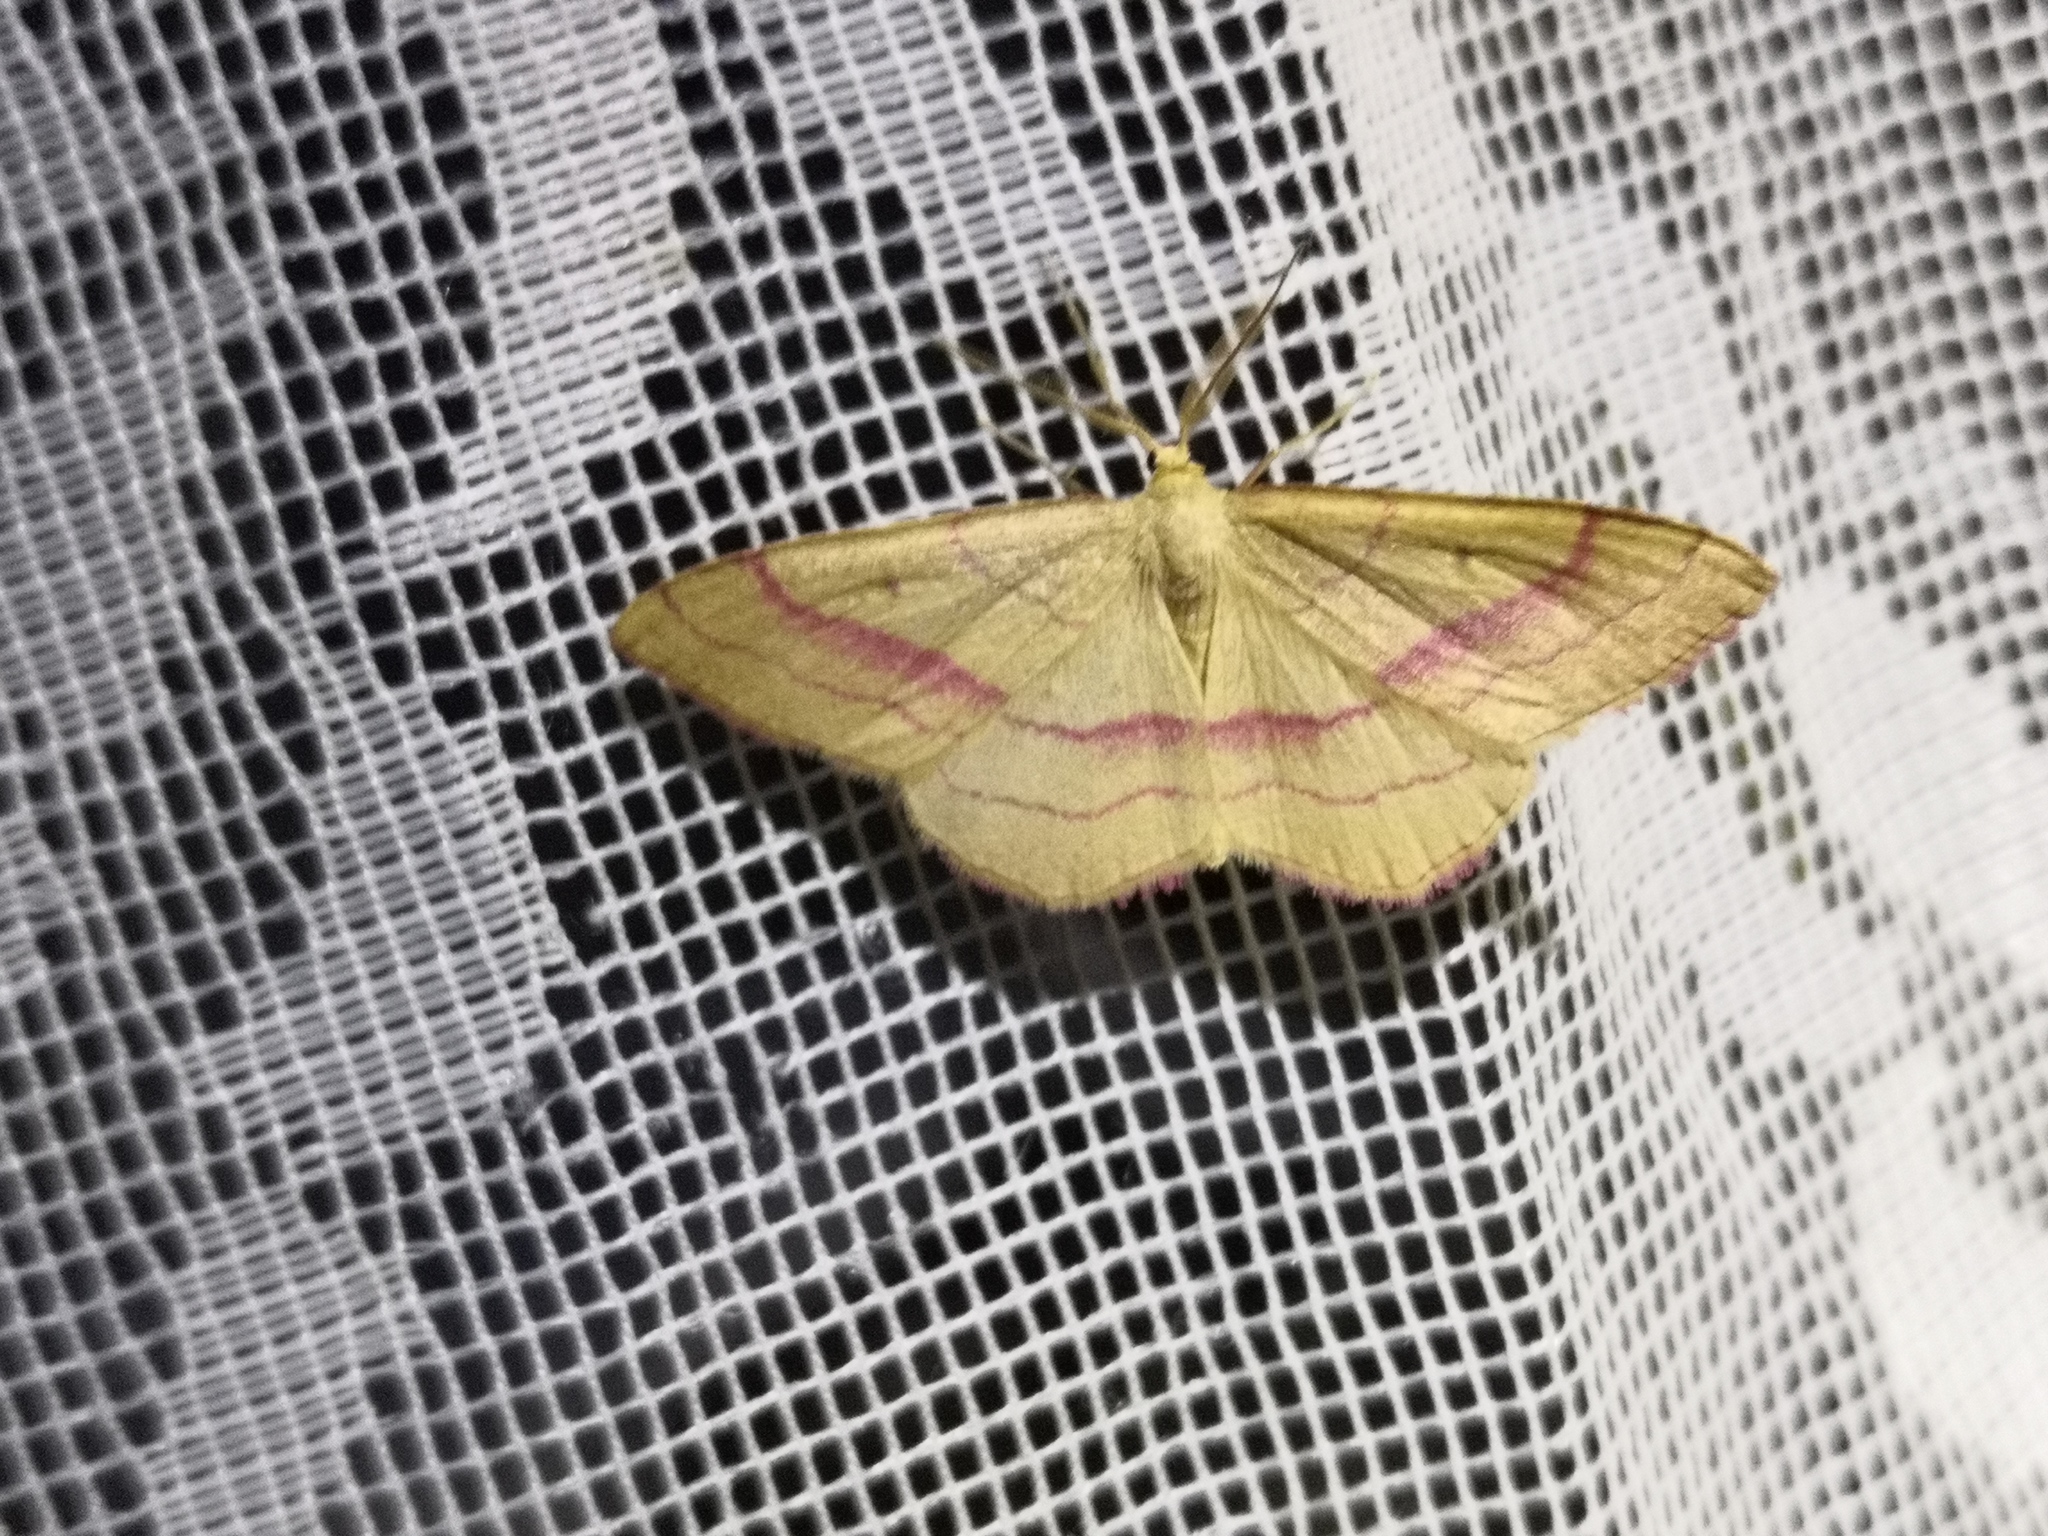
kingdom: Animalia
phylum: Arthropoda
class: Insecta
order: Lepidoptera
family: Geometridae
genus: Rhodostrophia
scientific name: Rhodostrophia vibicaria
